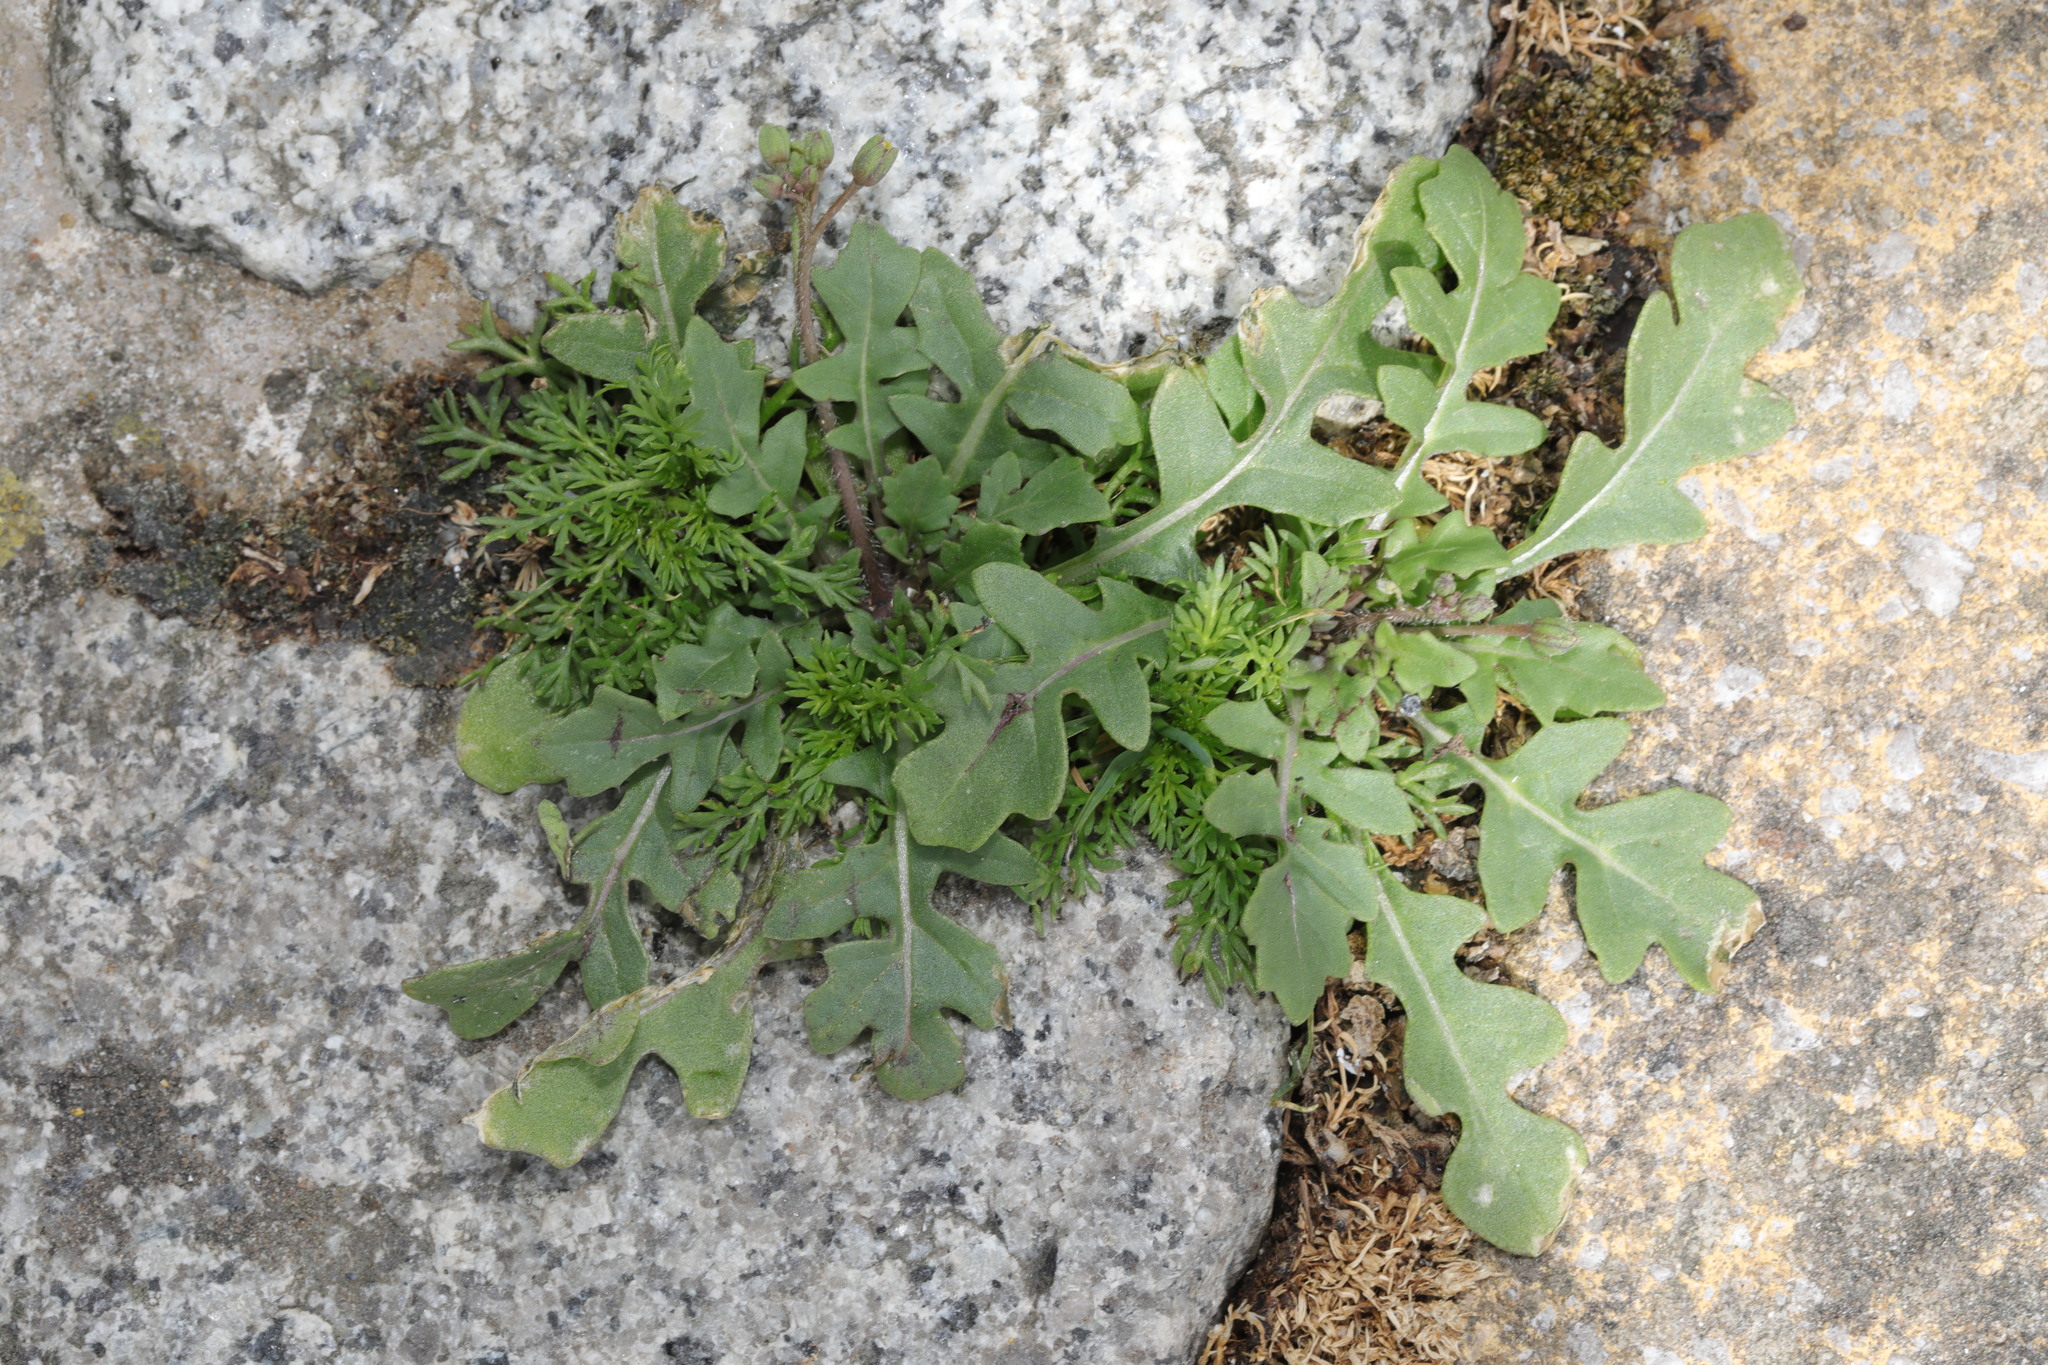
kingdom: Plantae
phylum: Tracheophyta
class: Magnoliopsida
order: Brassicales
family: Brassicaceae
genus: Diplotaxis
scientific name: Diplotaxis muralis
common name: Annual wall-rocket
